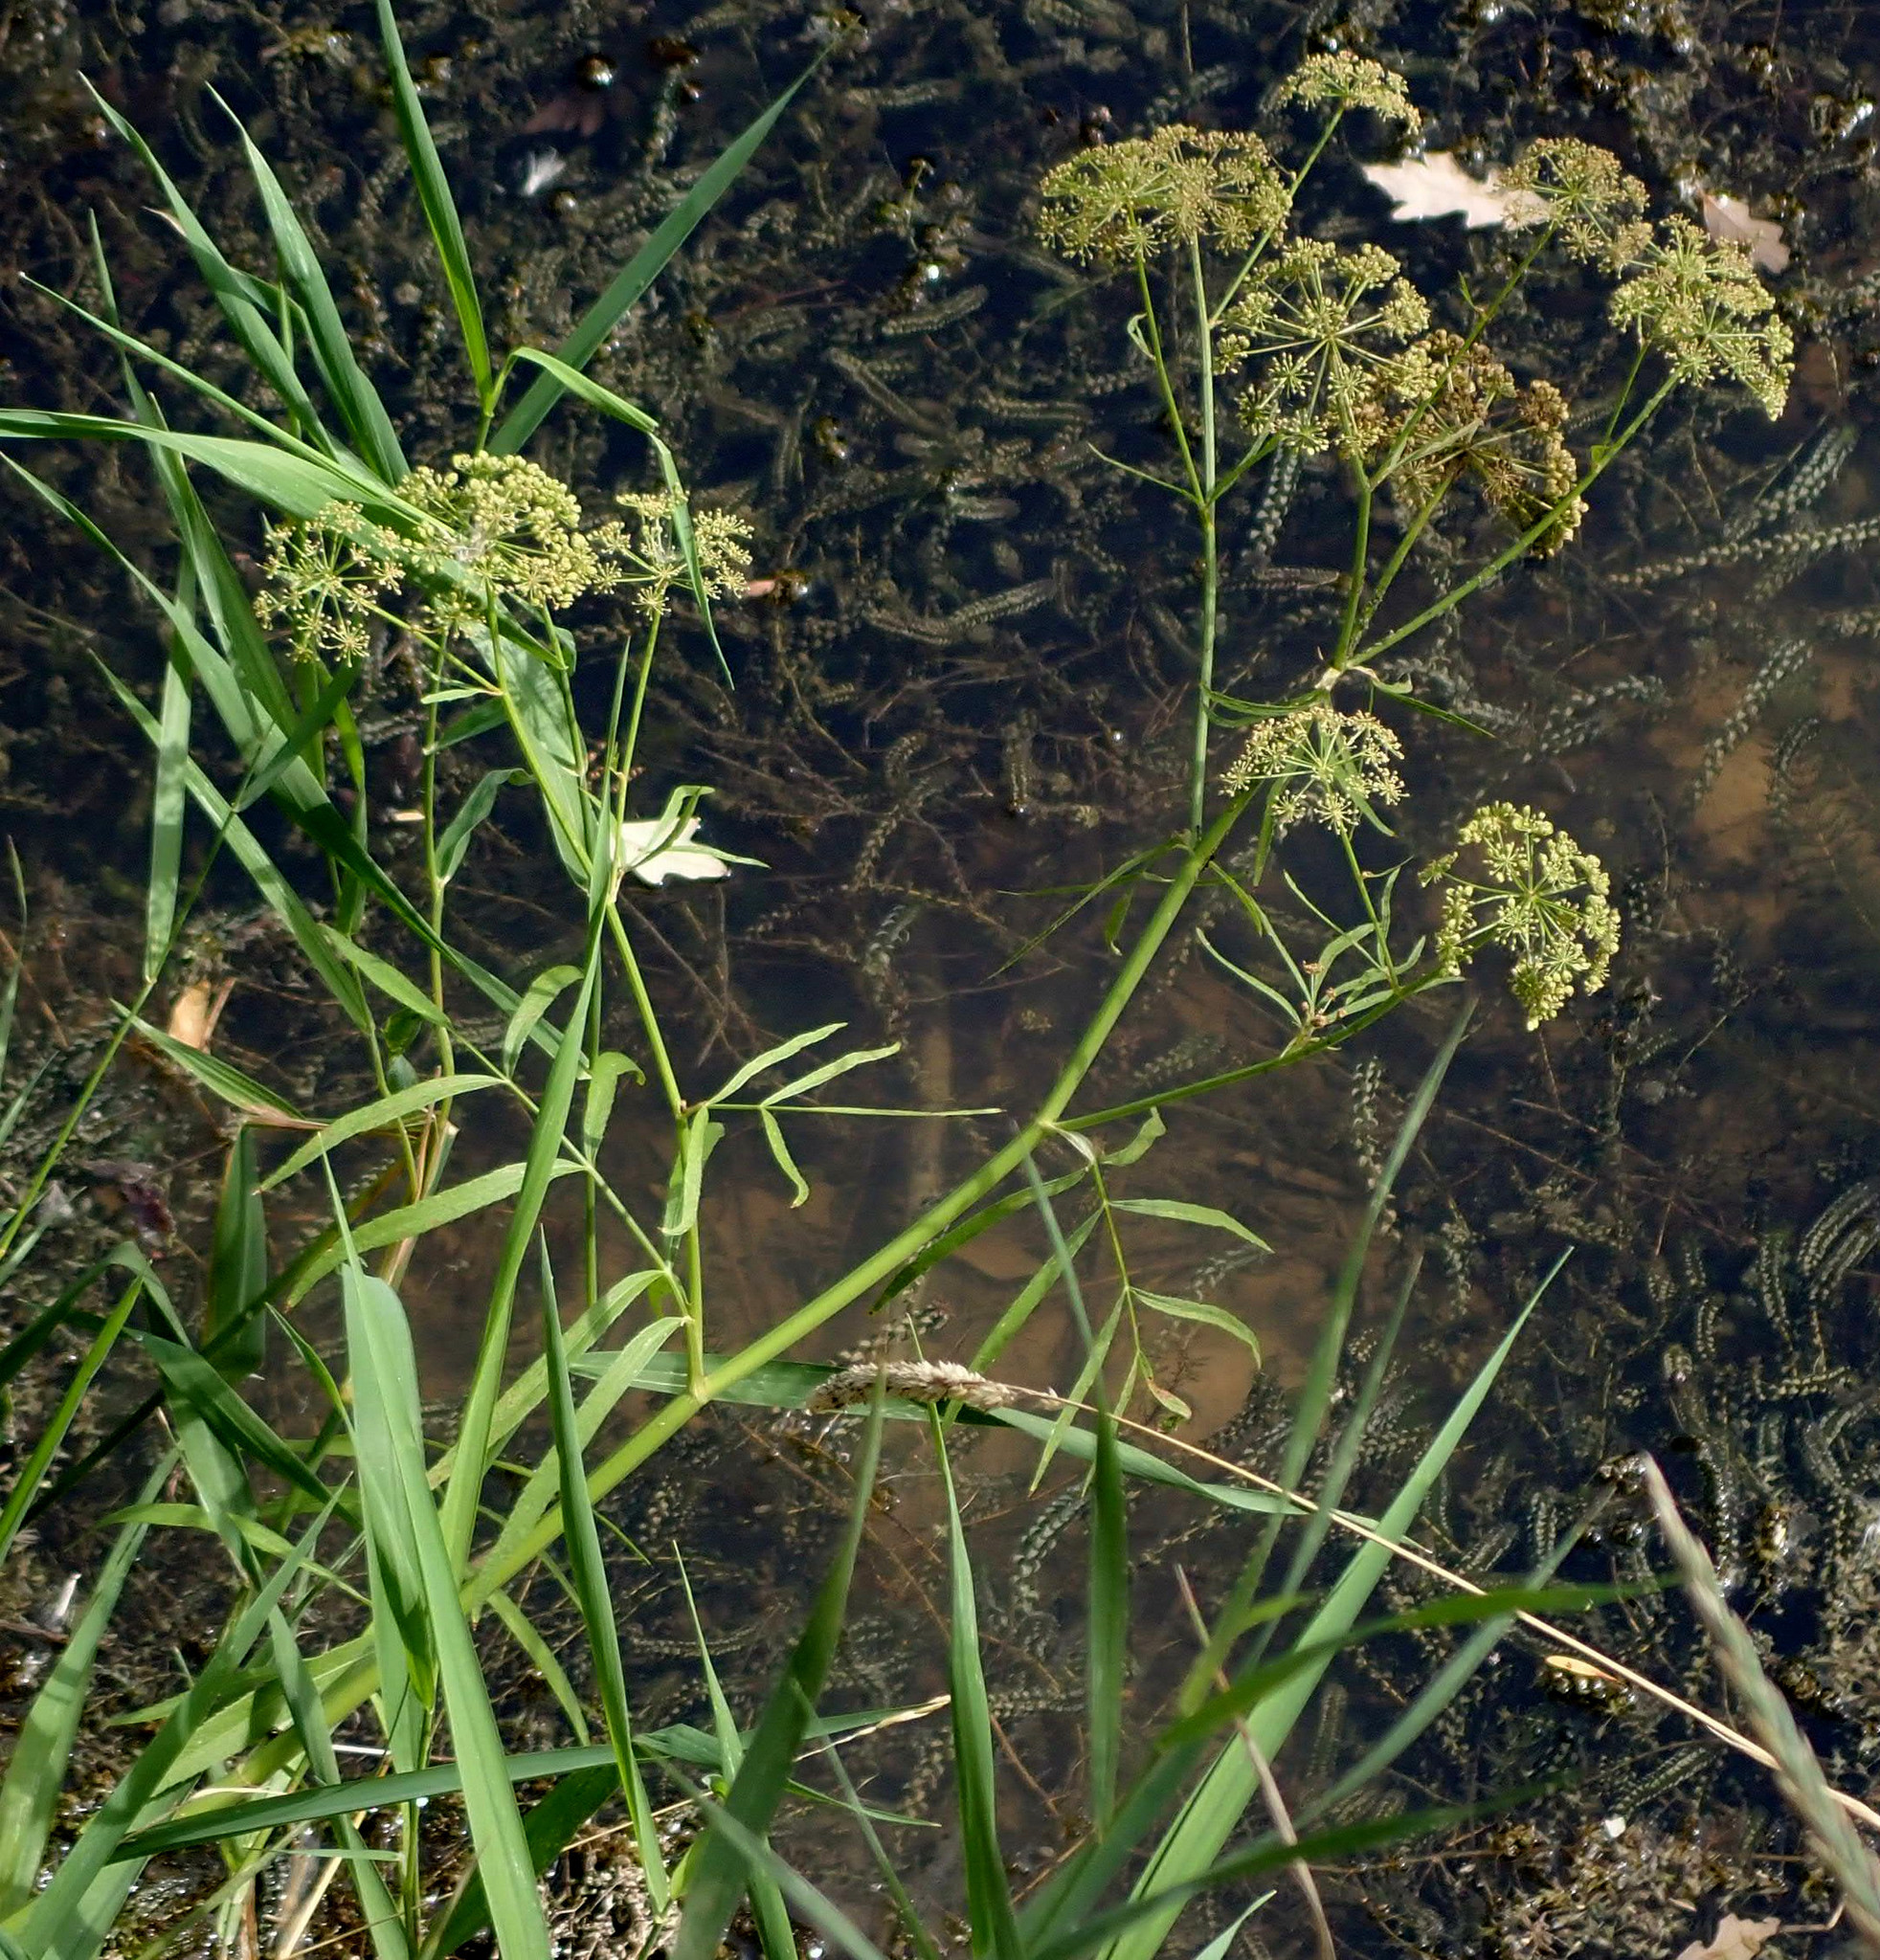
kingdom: Plantae
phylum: Tracheophyta
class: Magnoliopsida
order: Apiales
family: Apiaceae
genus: Sium
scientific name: Sium suave
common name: Hemlock water-parsnip
